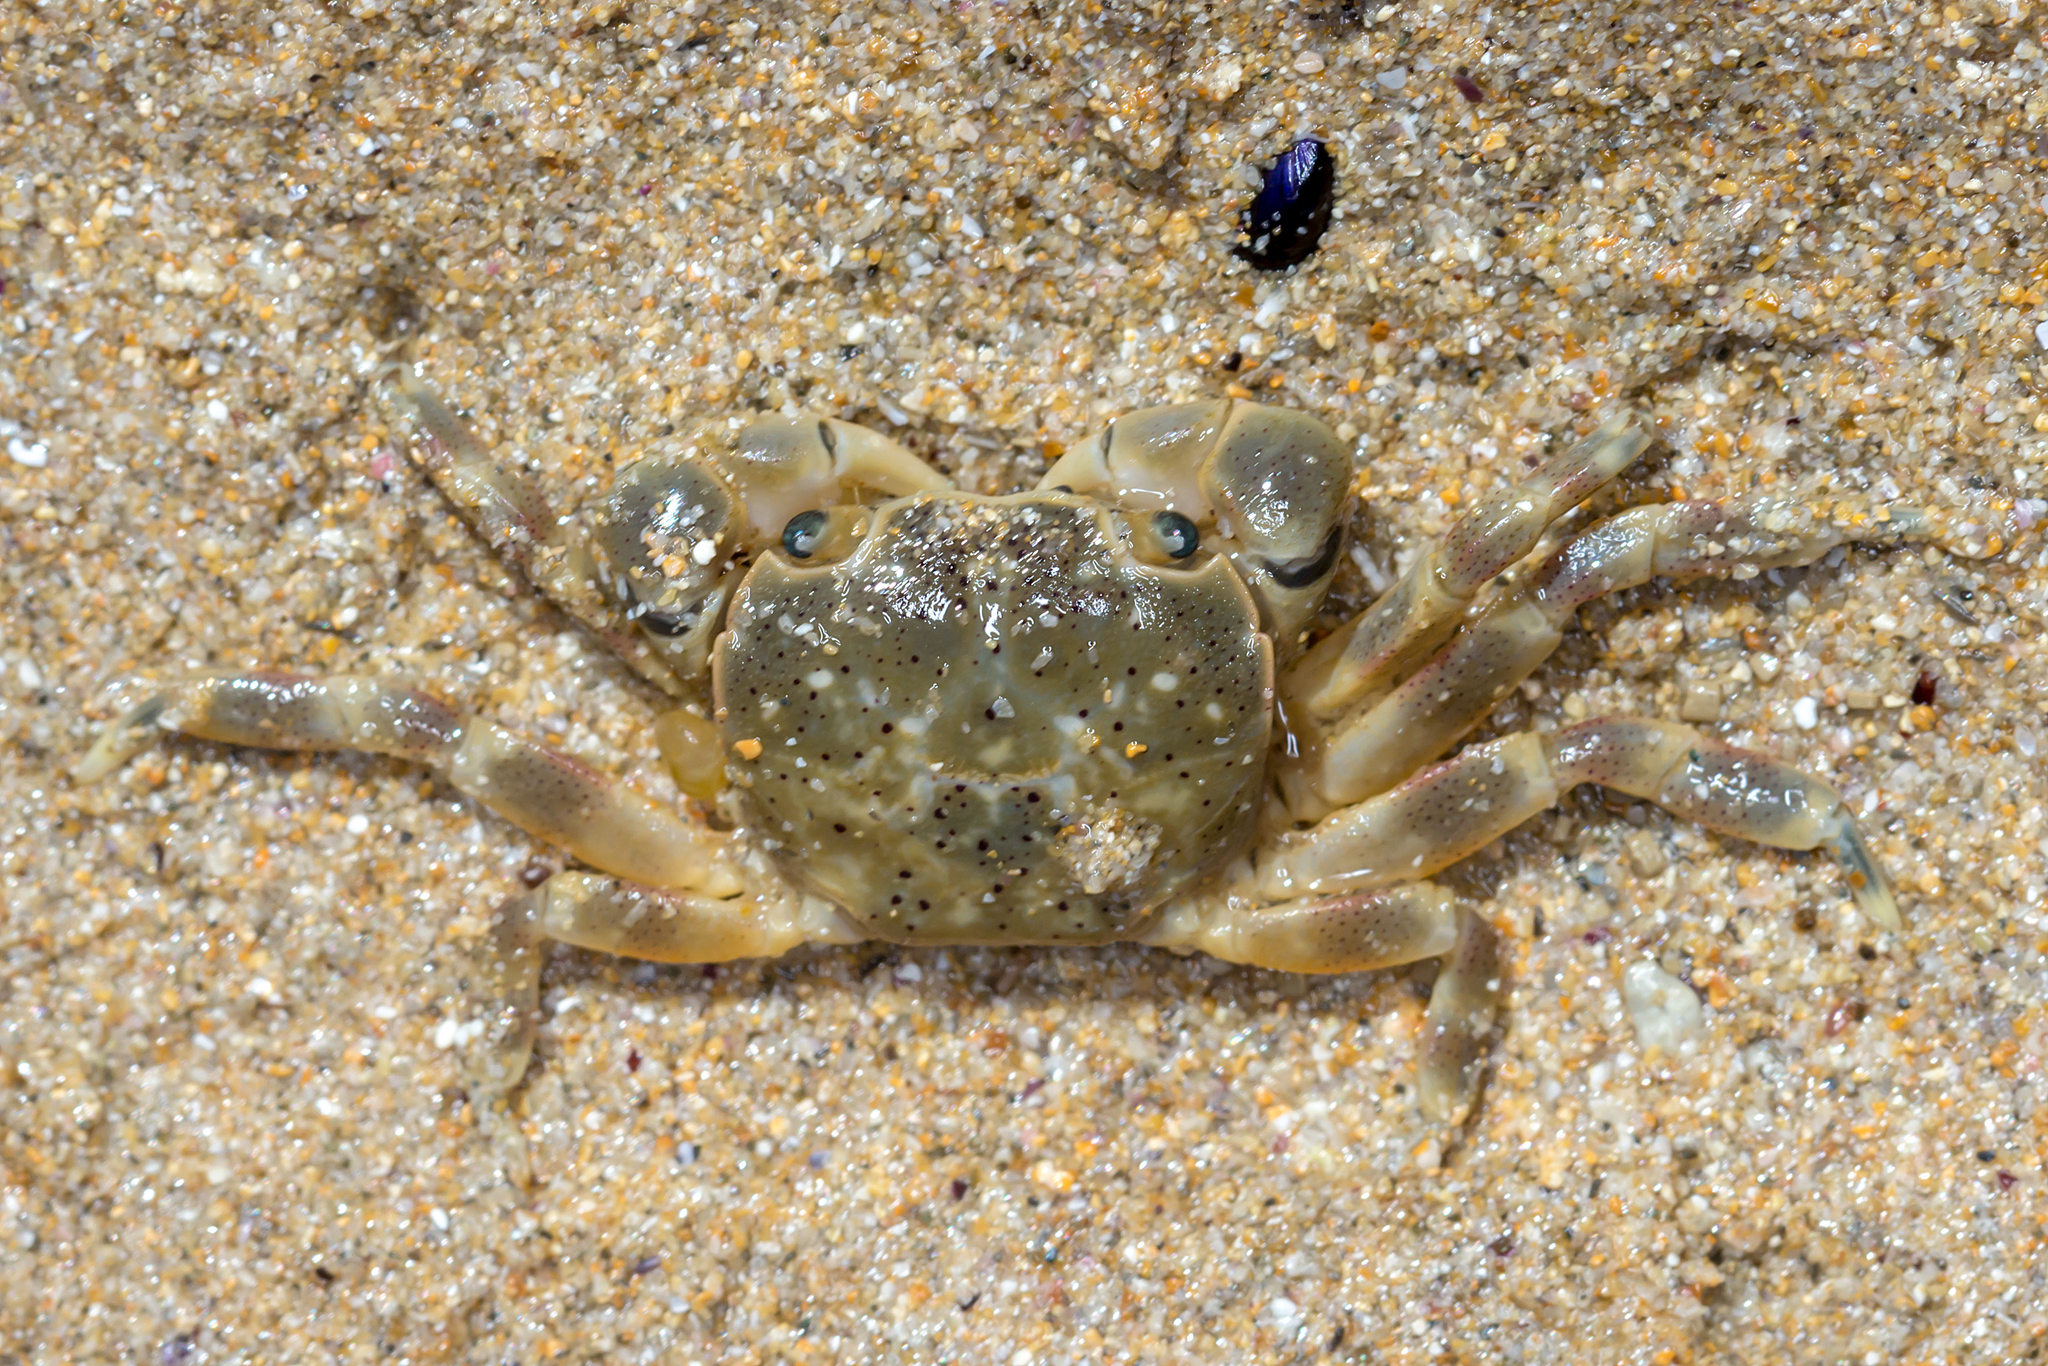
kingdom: Animalia
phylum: Arthropoda
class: Malacostraca
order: Decapoda
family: Varunidae
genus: Paragrapsus
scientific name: Paragrapsus quadridentatus
